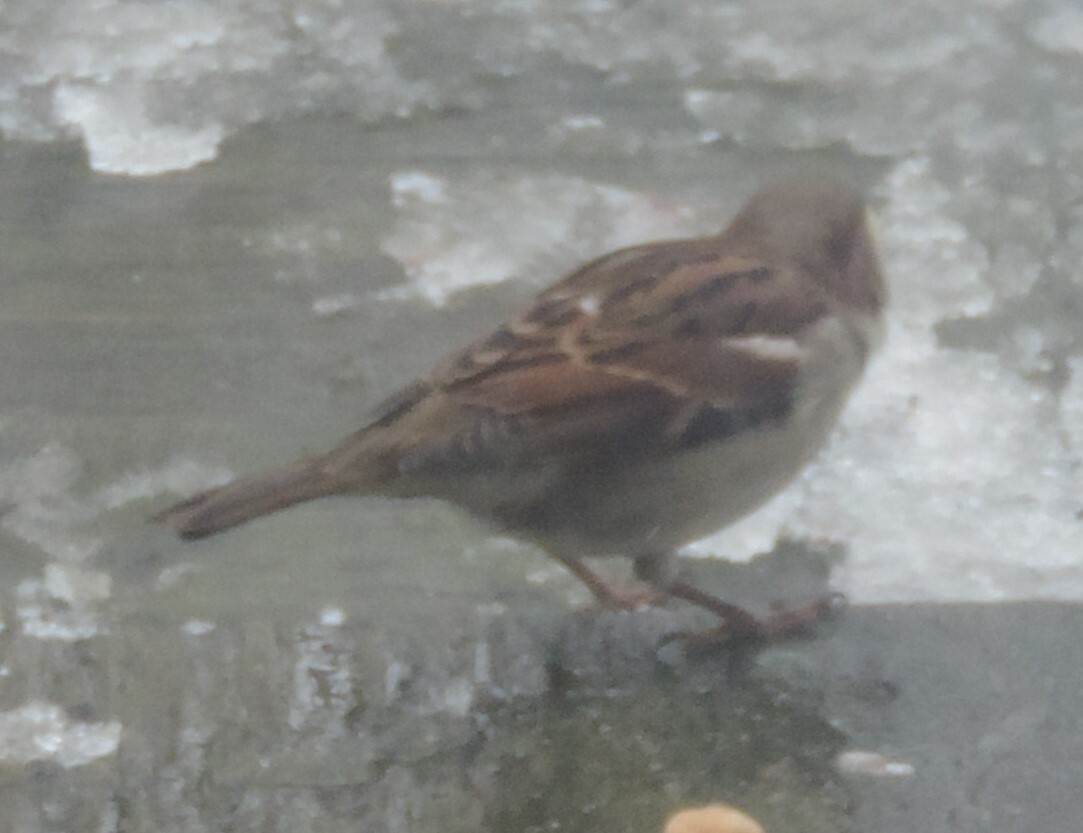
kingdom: Animalia
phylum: Chordata
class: Aves
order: Passeriformes
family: Passeridae
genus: Passer
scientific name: Passer domesticus
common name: House sparrow
